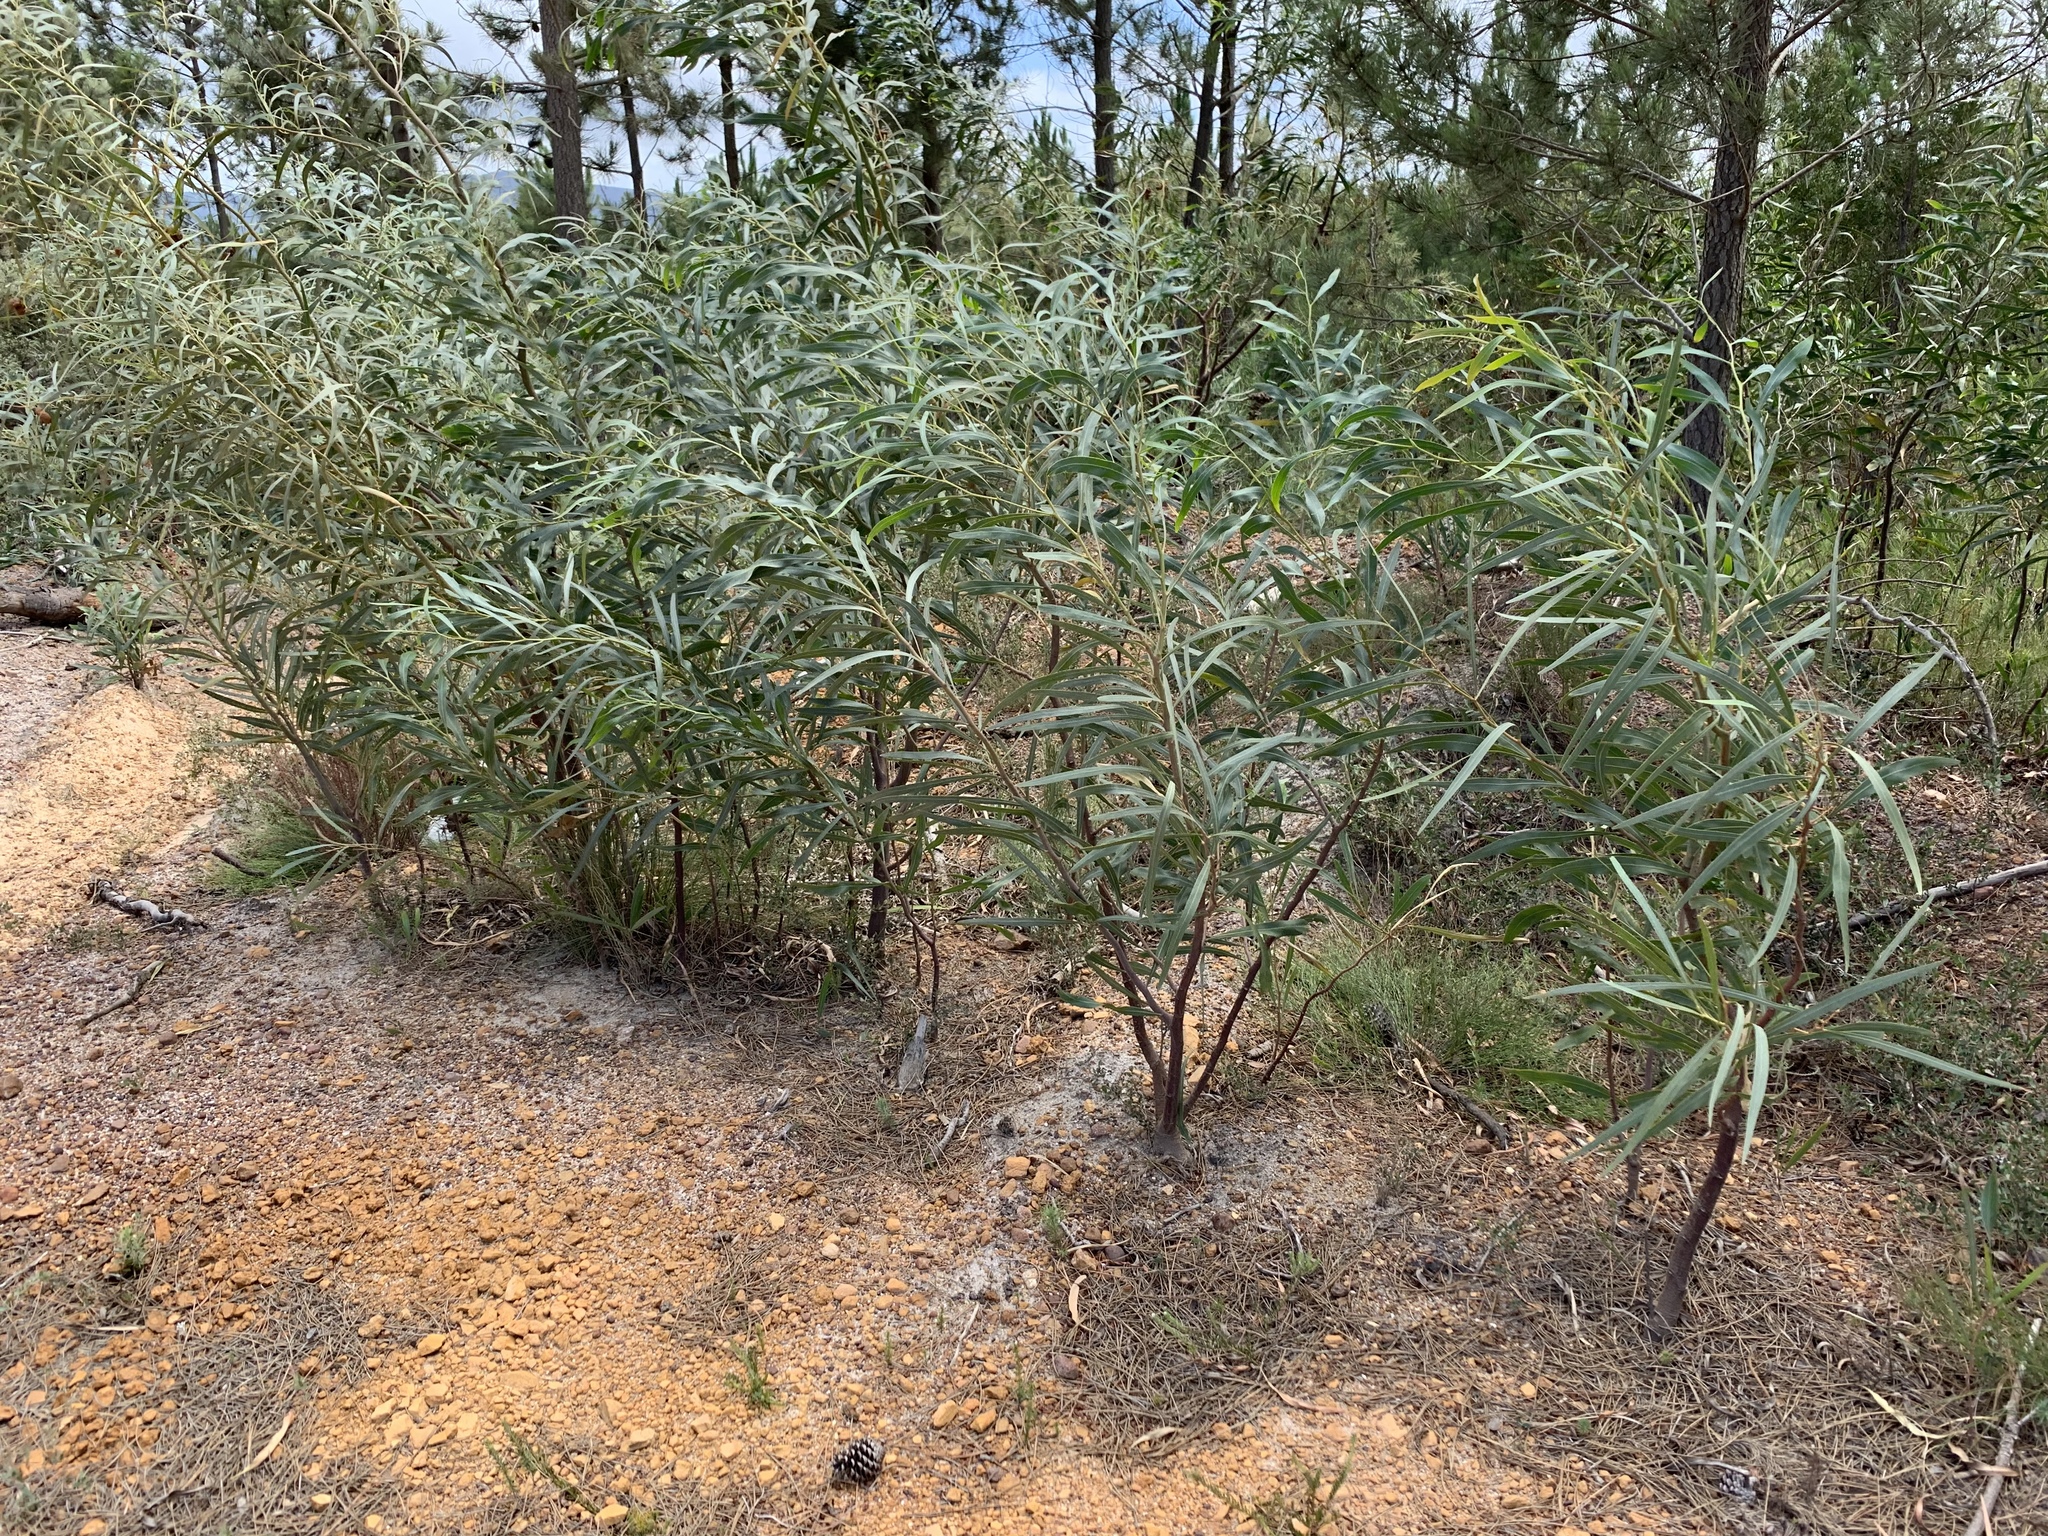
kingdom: Plantae
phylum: Tracheophyta
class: Magnoliopsida
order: Fabales
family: Fabaceae
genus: Acacia
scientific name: Acacia saligna
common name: Orange wattle
